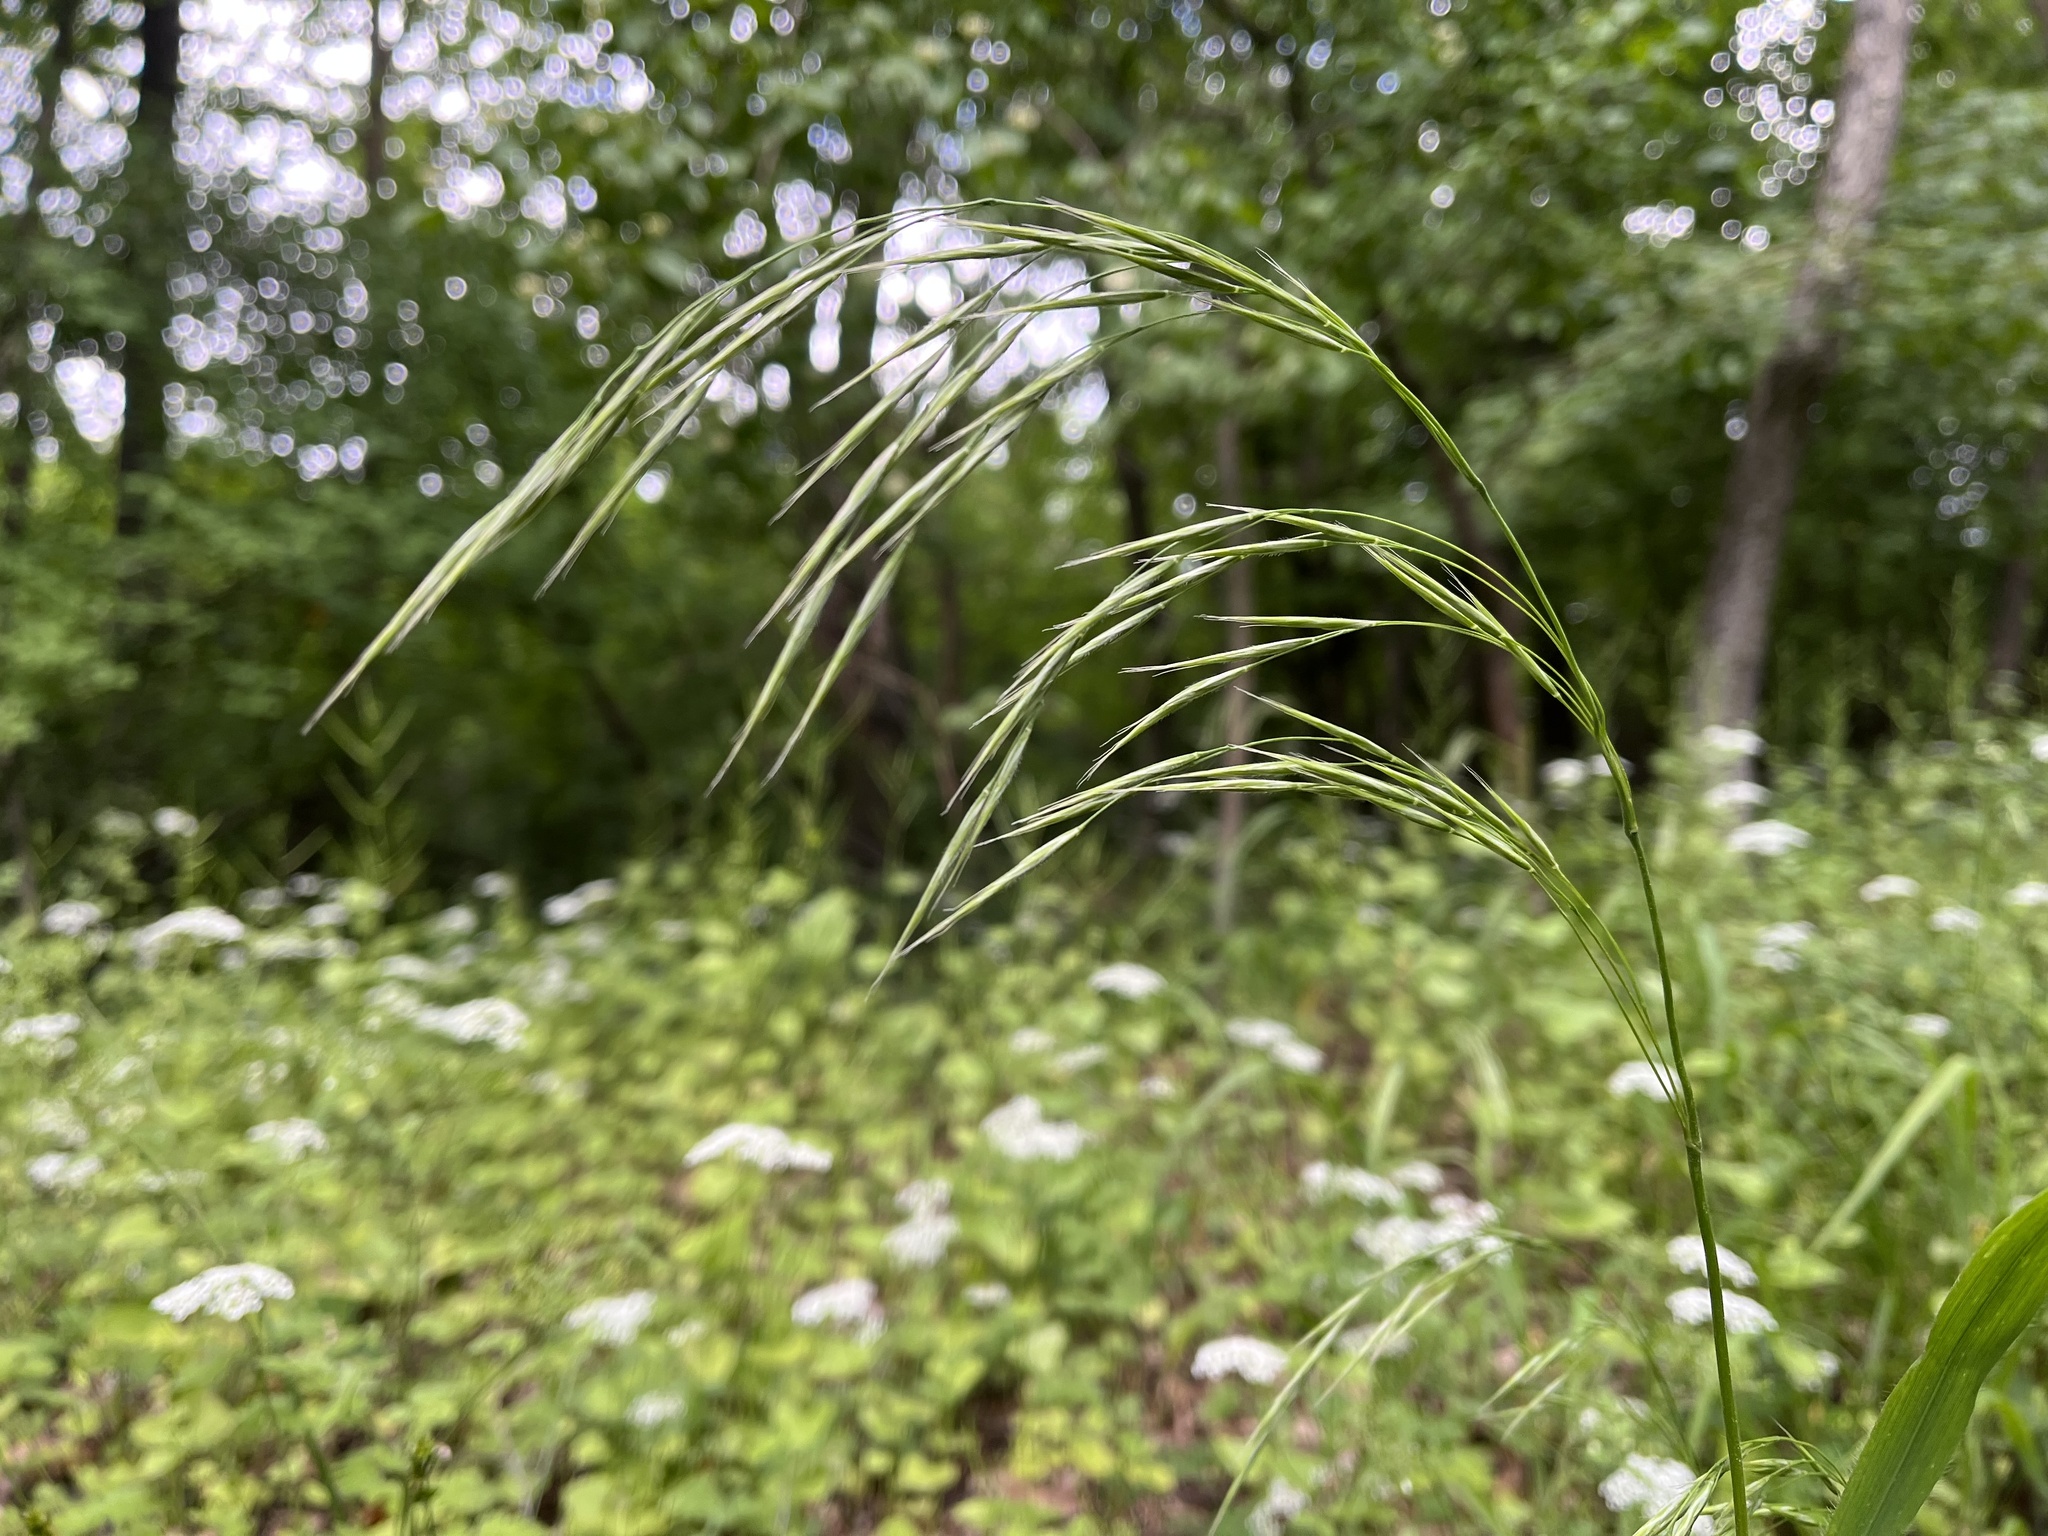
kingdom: Plantae
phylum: Tracheophyta
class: Liliopsida
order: Poales
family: Poaceae
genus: Bromus
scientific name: Bromus benekenii
